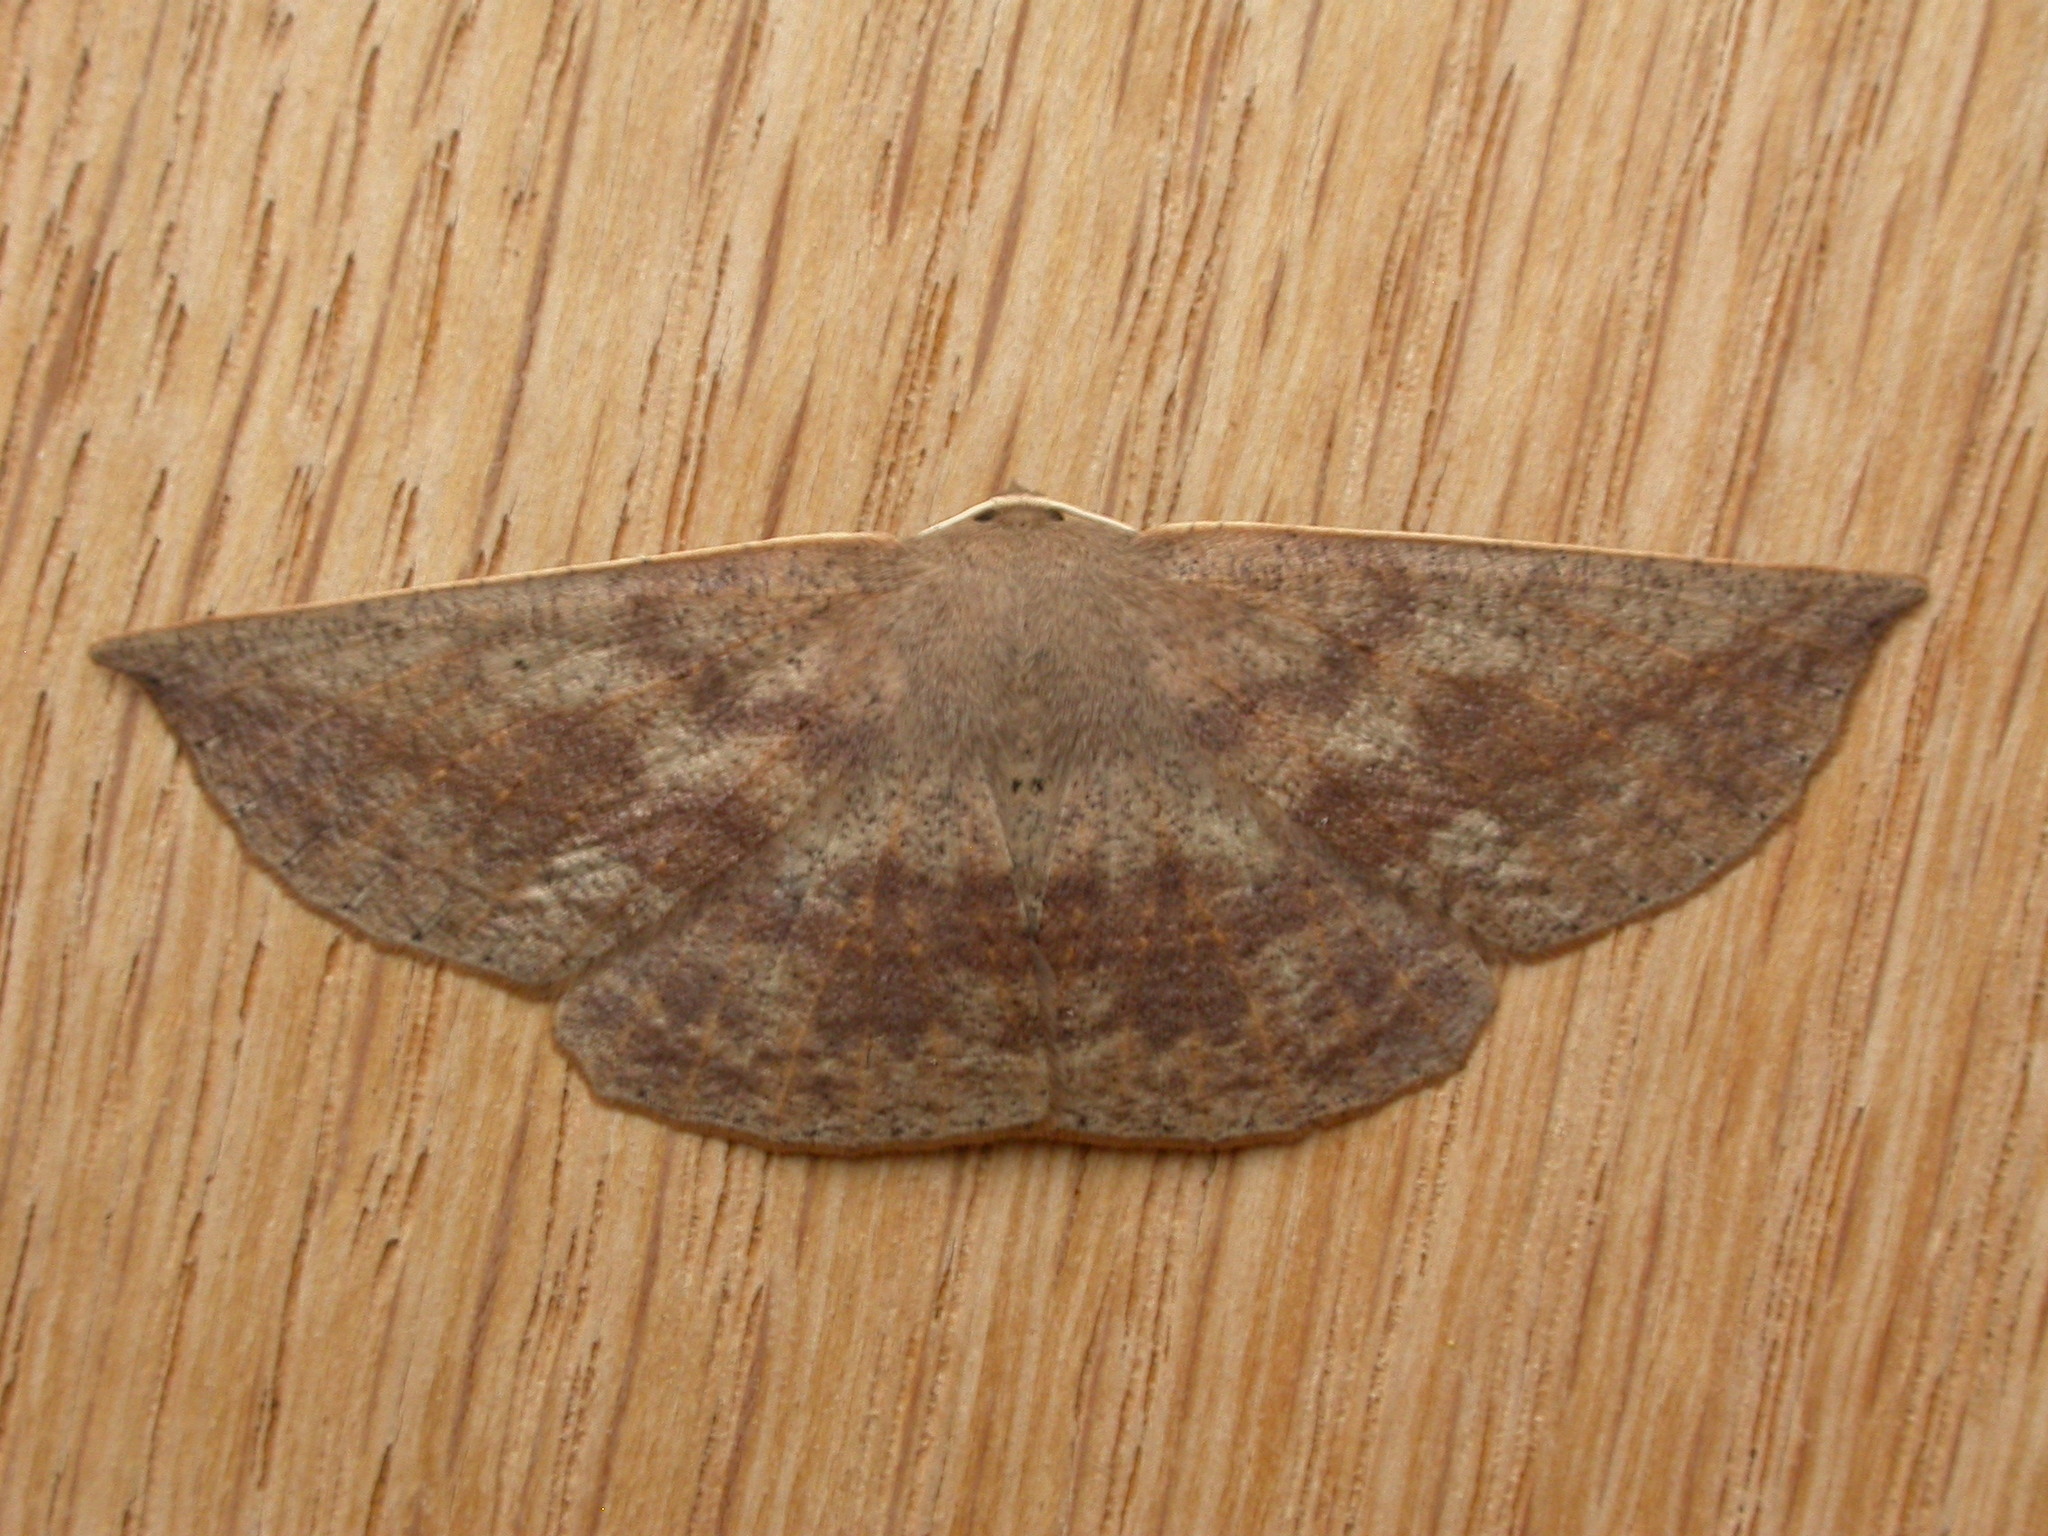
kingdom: Animalia
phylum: Arthropoda
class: Insecta
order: Lepidoptera
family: Geometridae
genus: Idiodes
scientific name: Idiodes siculoides
